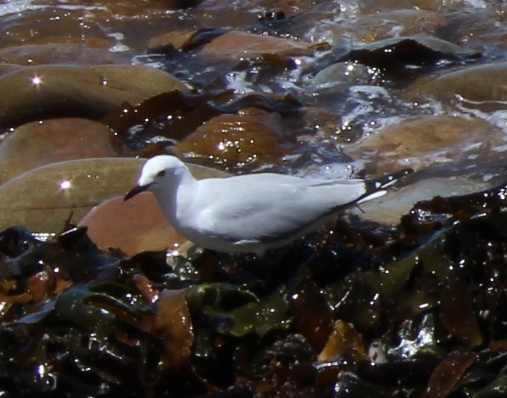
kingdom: Animalia
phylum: Chordata
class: Aves
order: Charadriiformes
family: Laridae
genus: Chroicocephalus
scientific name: Chroicocephalus hartlaubii
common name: Hartlaub's gull
